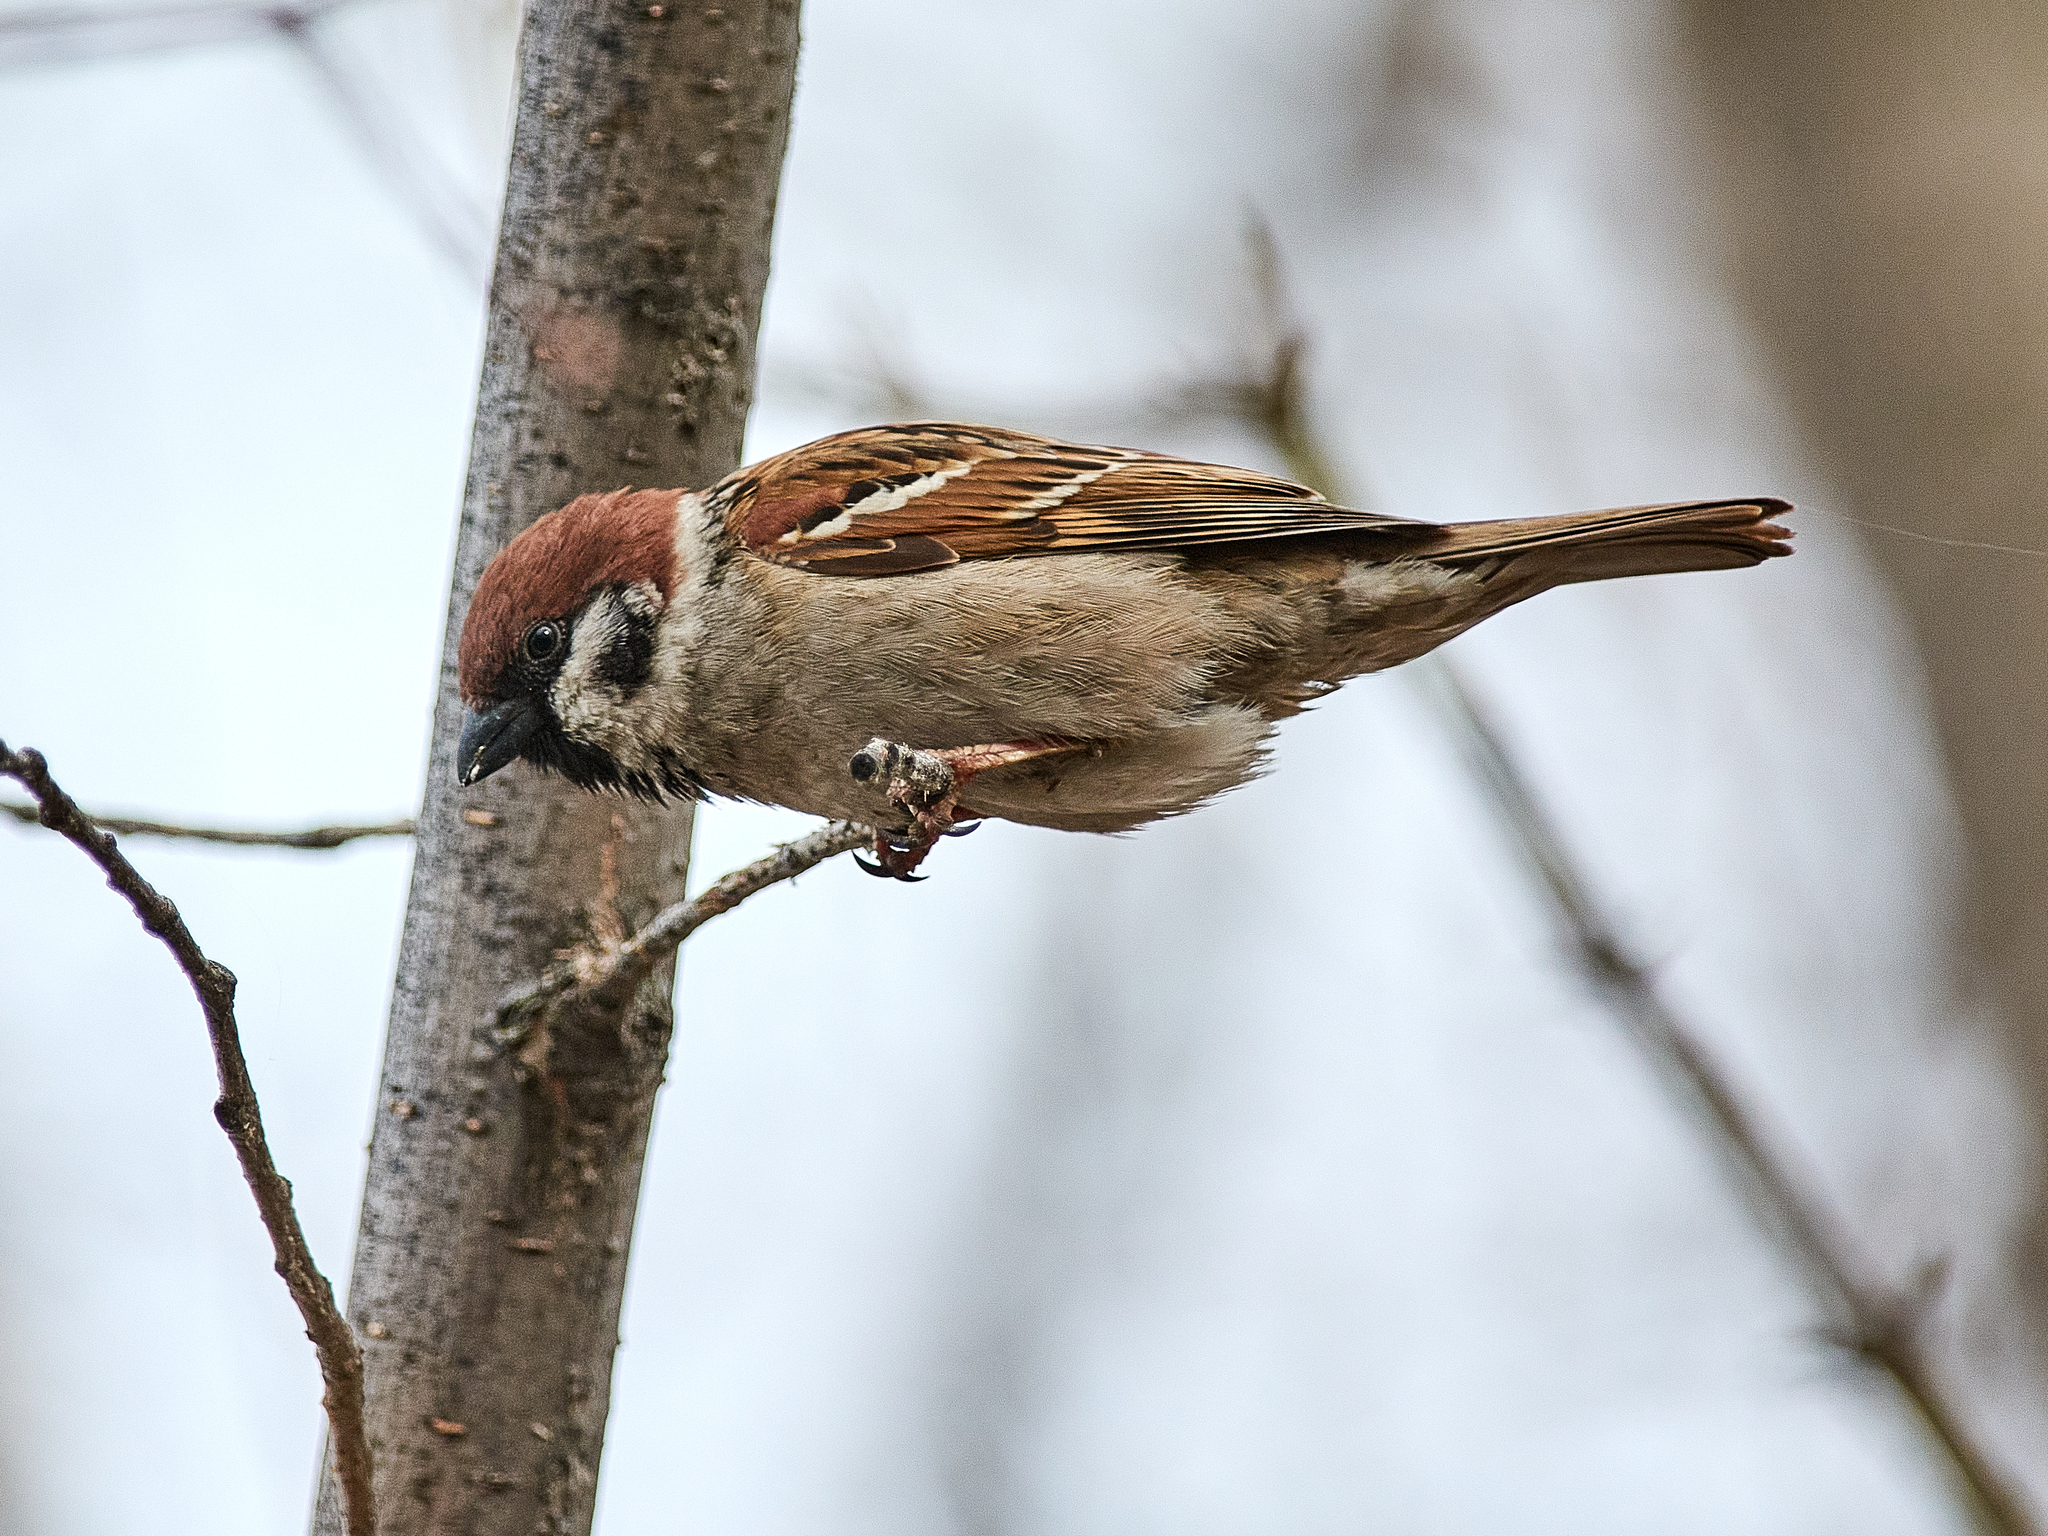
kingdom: Animalia
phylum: Chordata
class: Aves
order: Passeriformes
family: Passeridae
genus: Passer
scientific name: Passer montanus
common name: Eurasian tree sparrow
